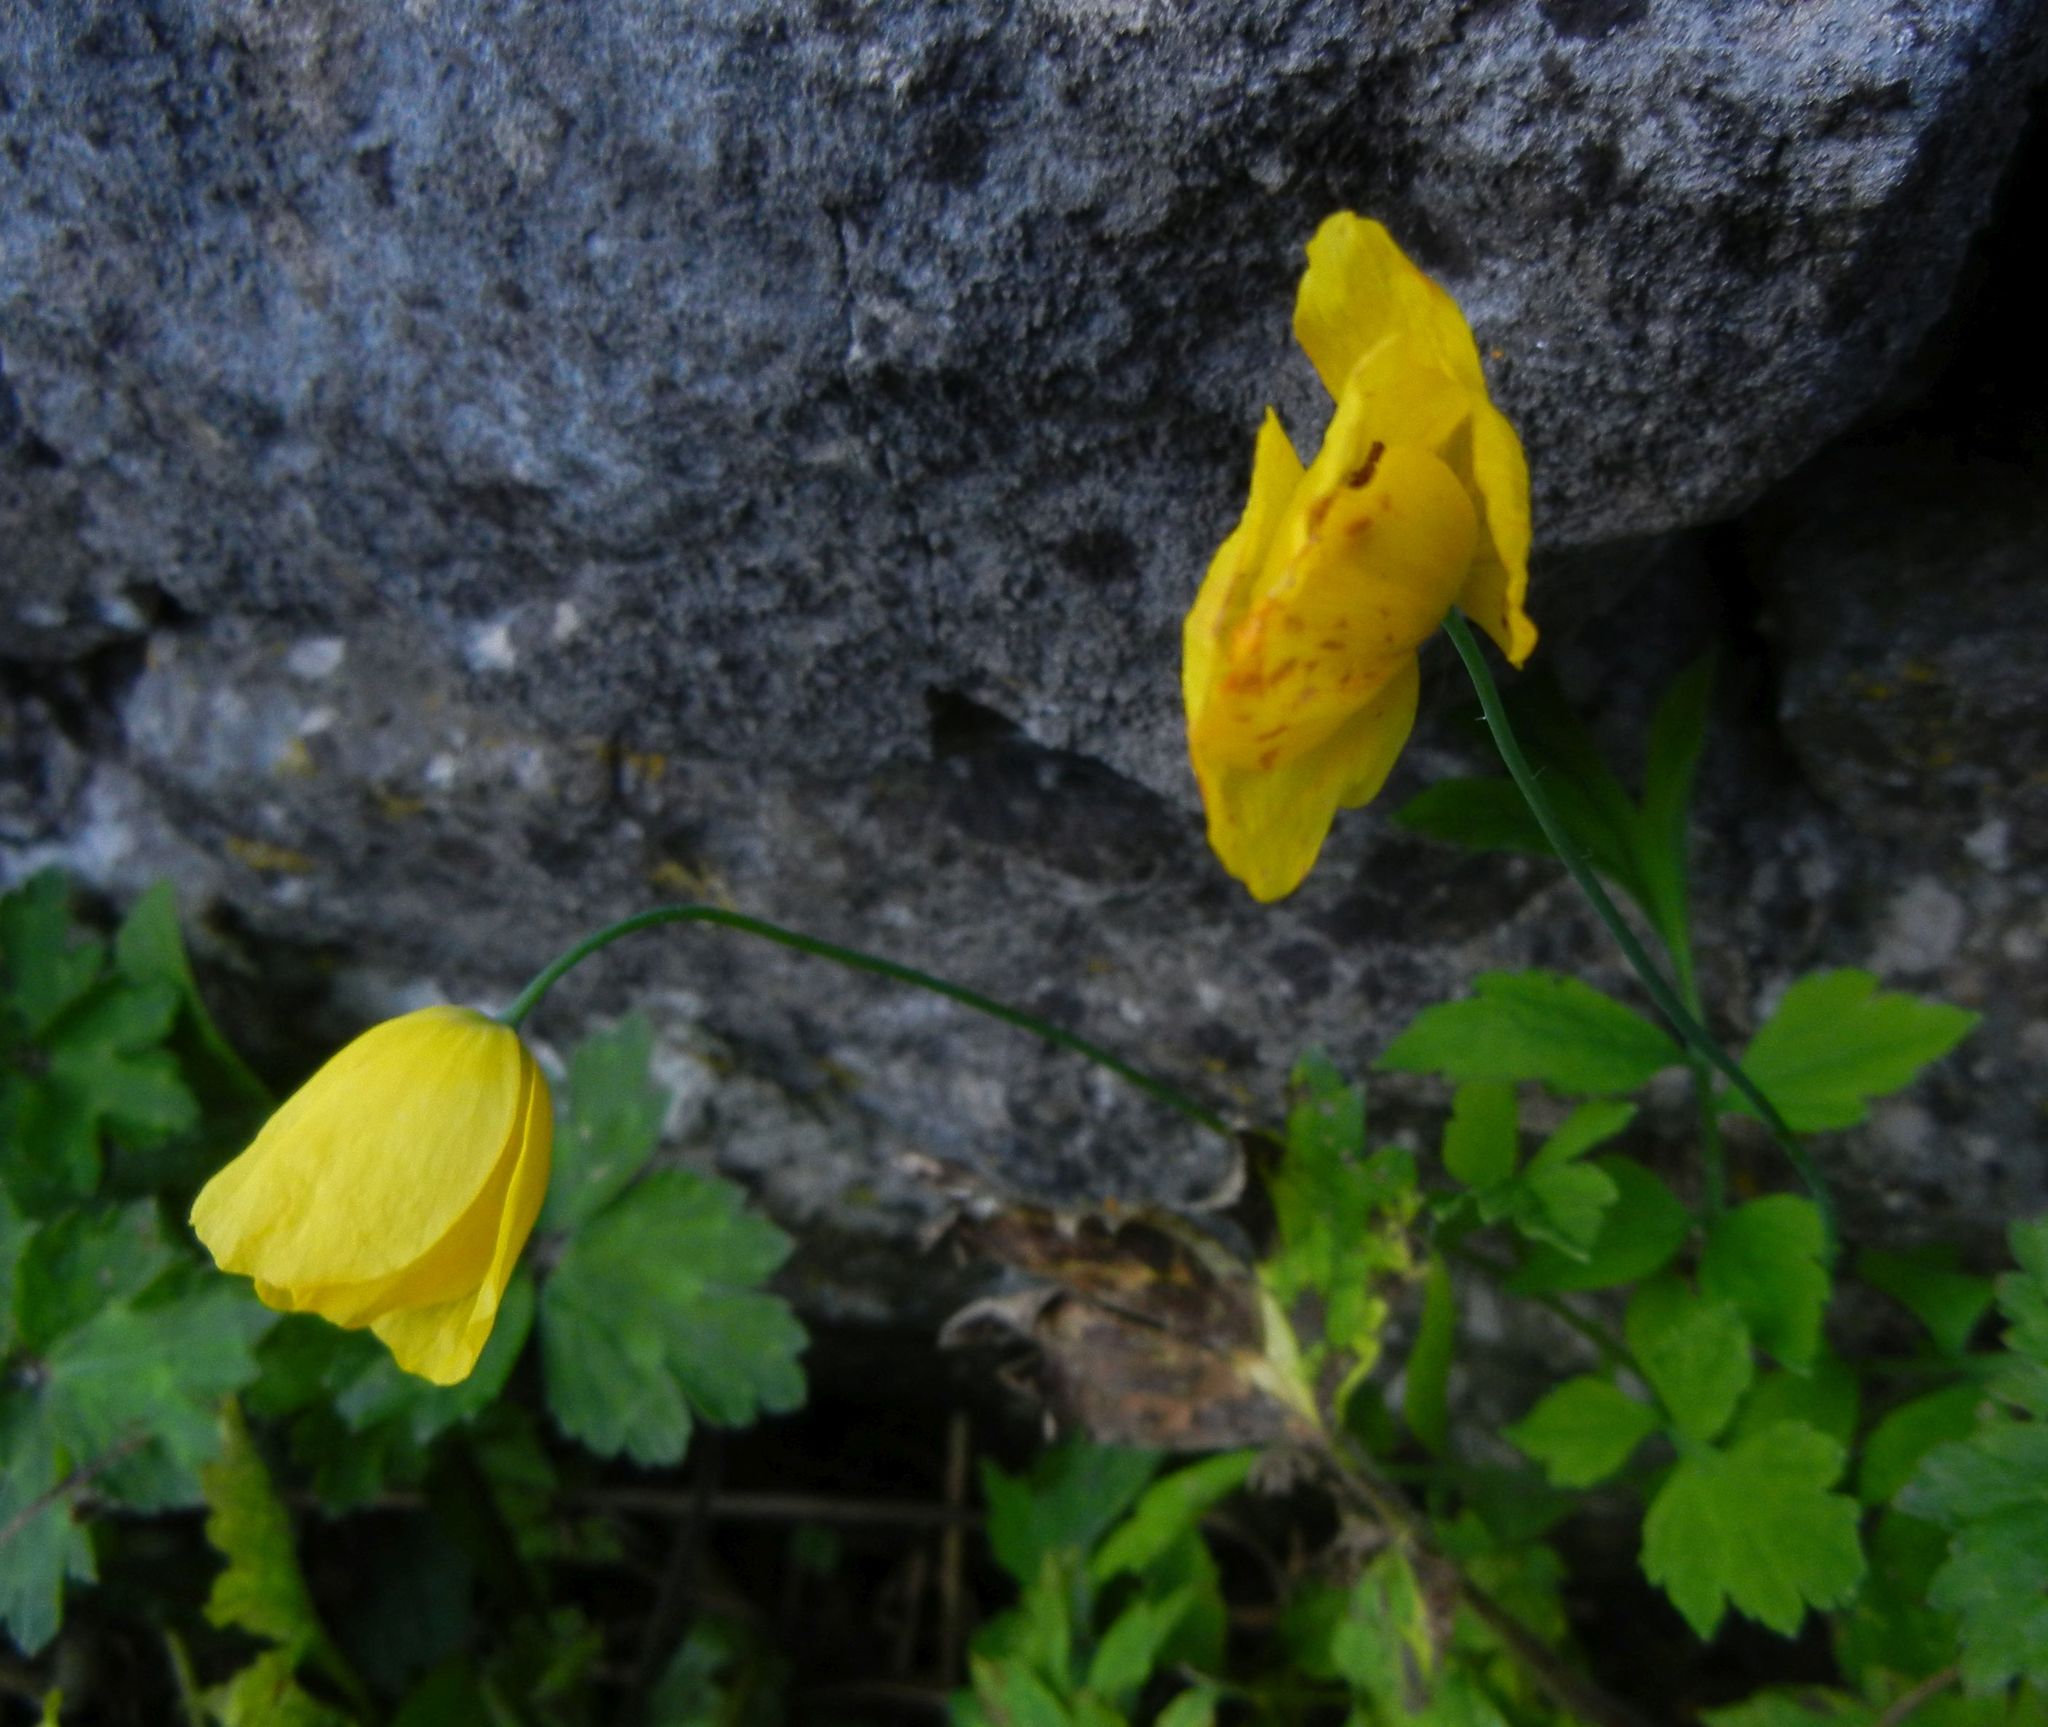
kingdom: Plantae
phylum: Tracheophyta
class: Magnoliopsida
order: Ranunculales
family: Papaveraceae
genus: Papaver
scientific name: Papaver cambricum
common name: Poppy
